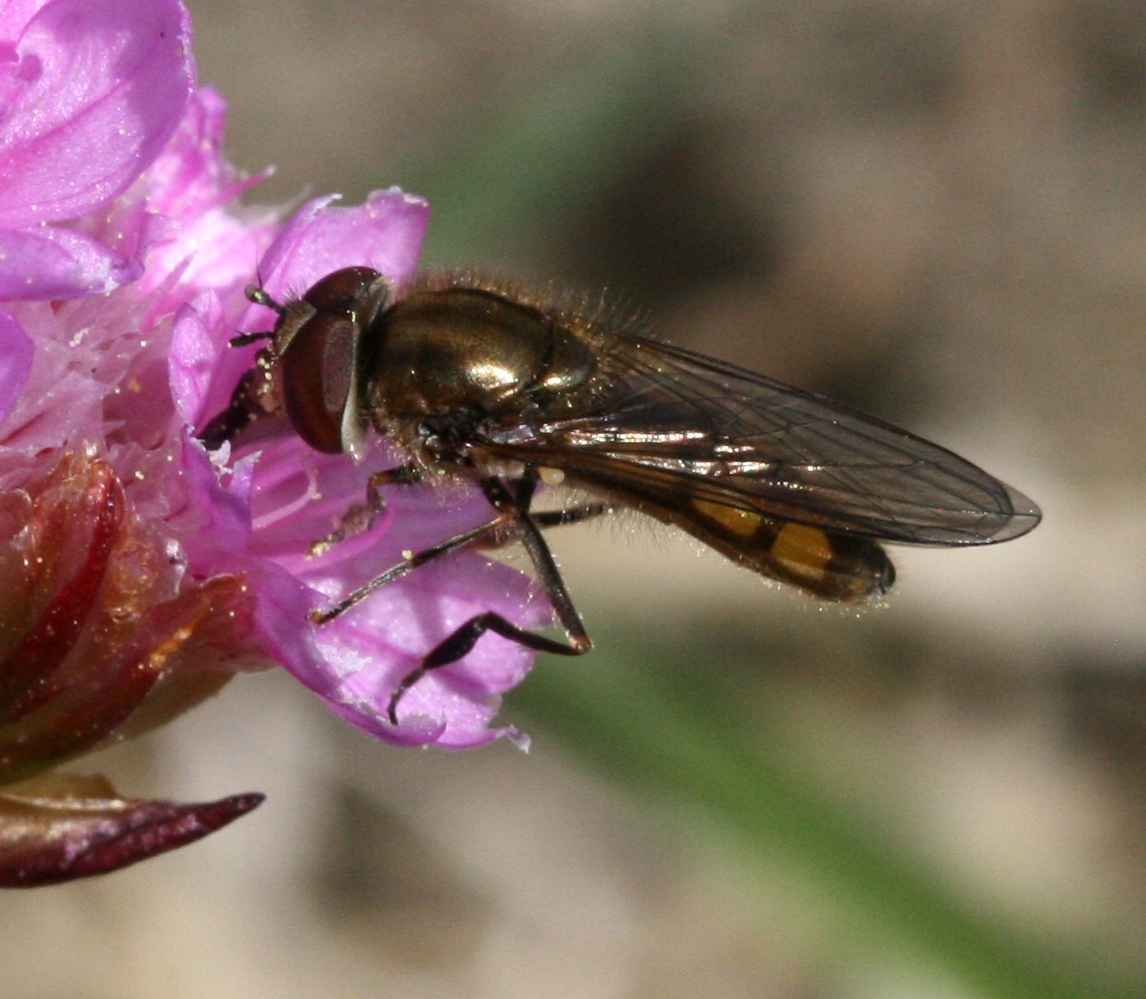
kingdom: Animalia
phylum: Arthropoda
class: Insecta
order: Diptera
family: Syrphidae
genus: Platycheirus
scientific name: Platycheirus manicatus
